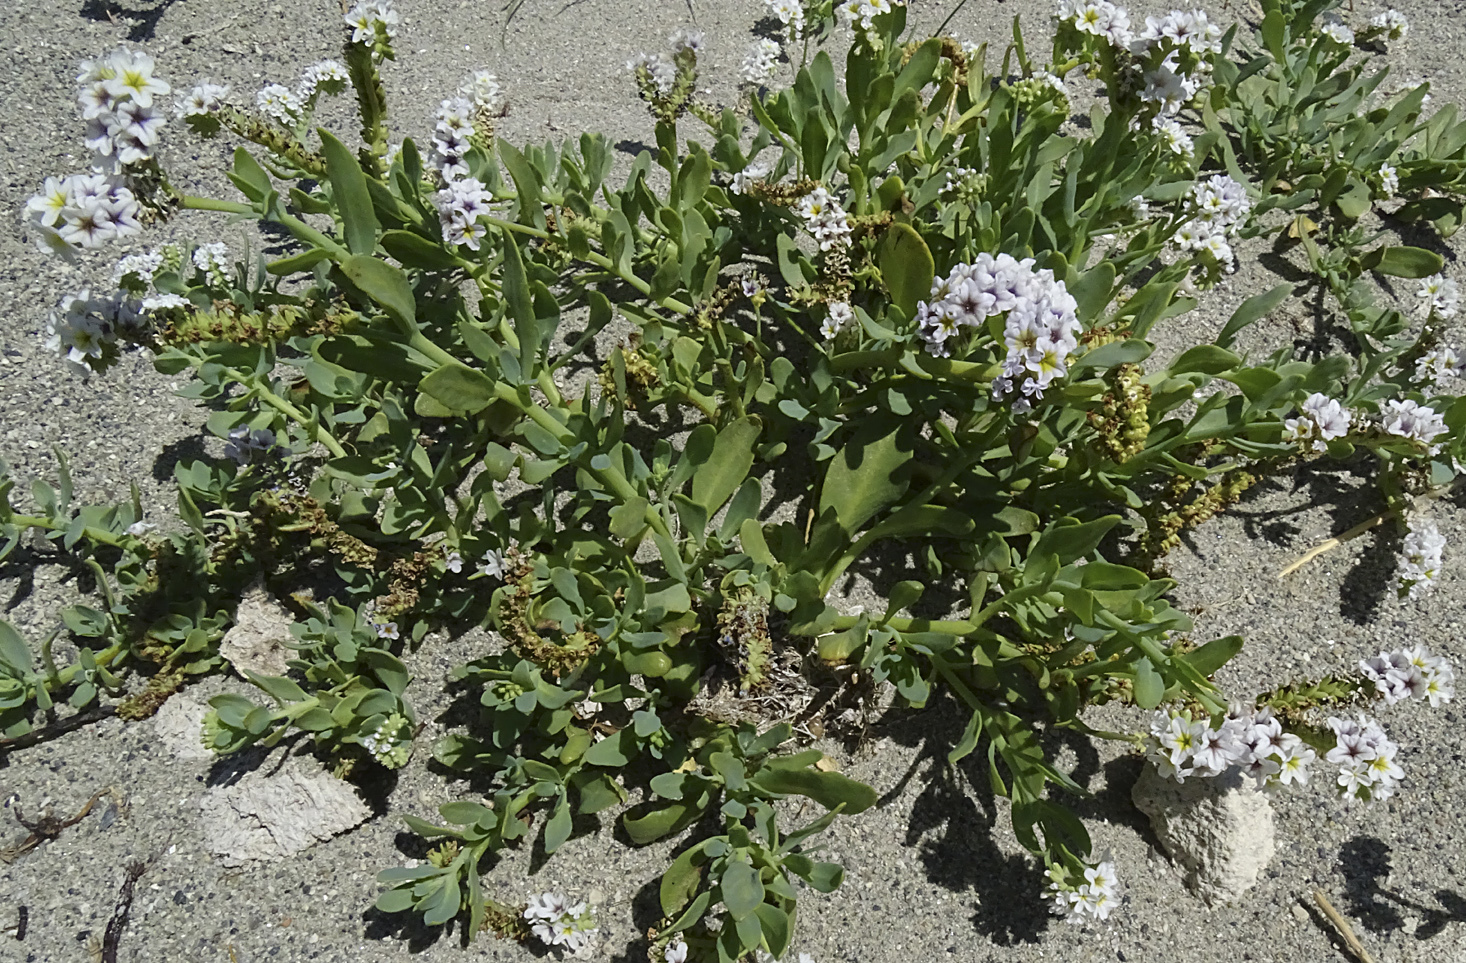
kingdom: Plantae
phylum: Tracheophyta
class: Magnoliopsida
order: Boraginales
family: Heliotropiaceae
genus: Heliotropium
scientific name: Heliotropium curassavicum
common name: Seaside heliotrope
